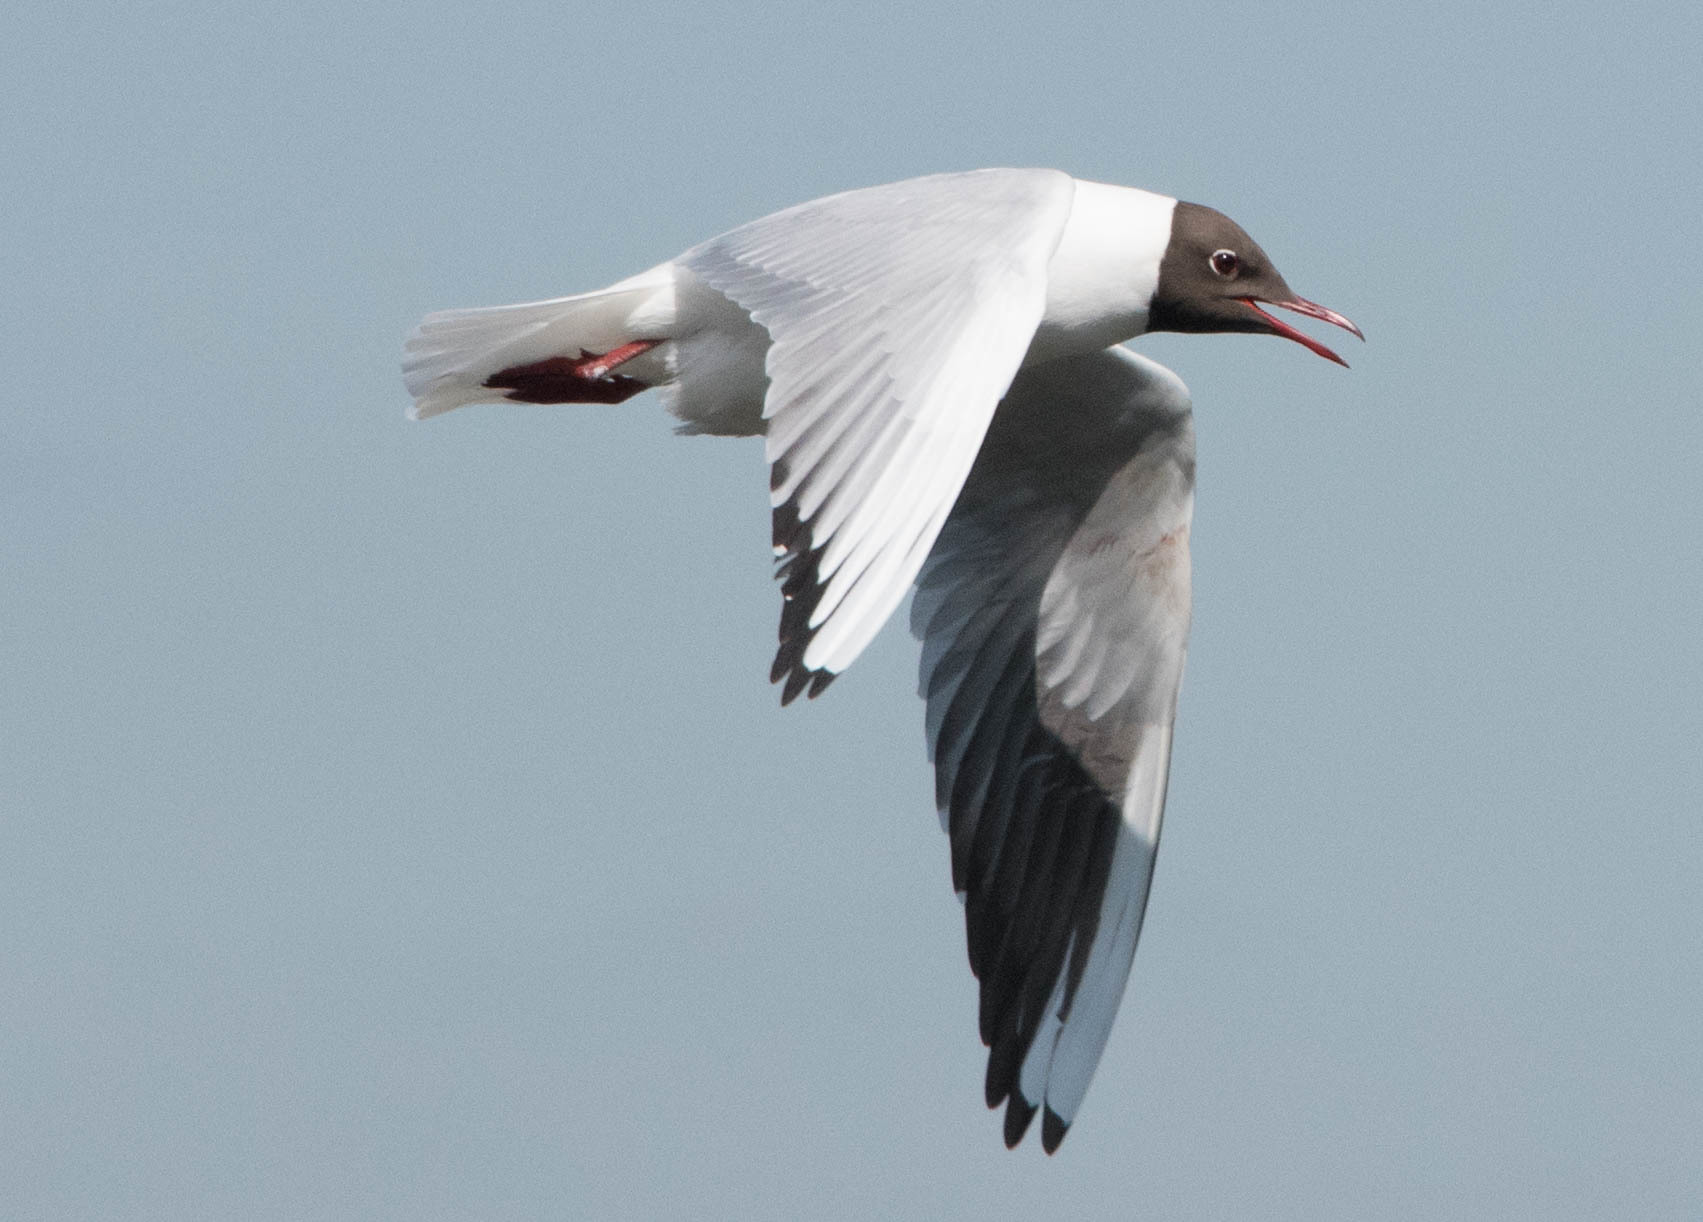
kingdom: Animalia
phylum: Chordata
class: Aves
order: Charadriiformes
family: Laridae
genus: Chroicocephalus
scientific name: Chroicocephalus ridibundus
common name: Black-headed gull
